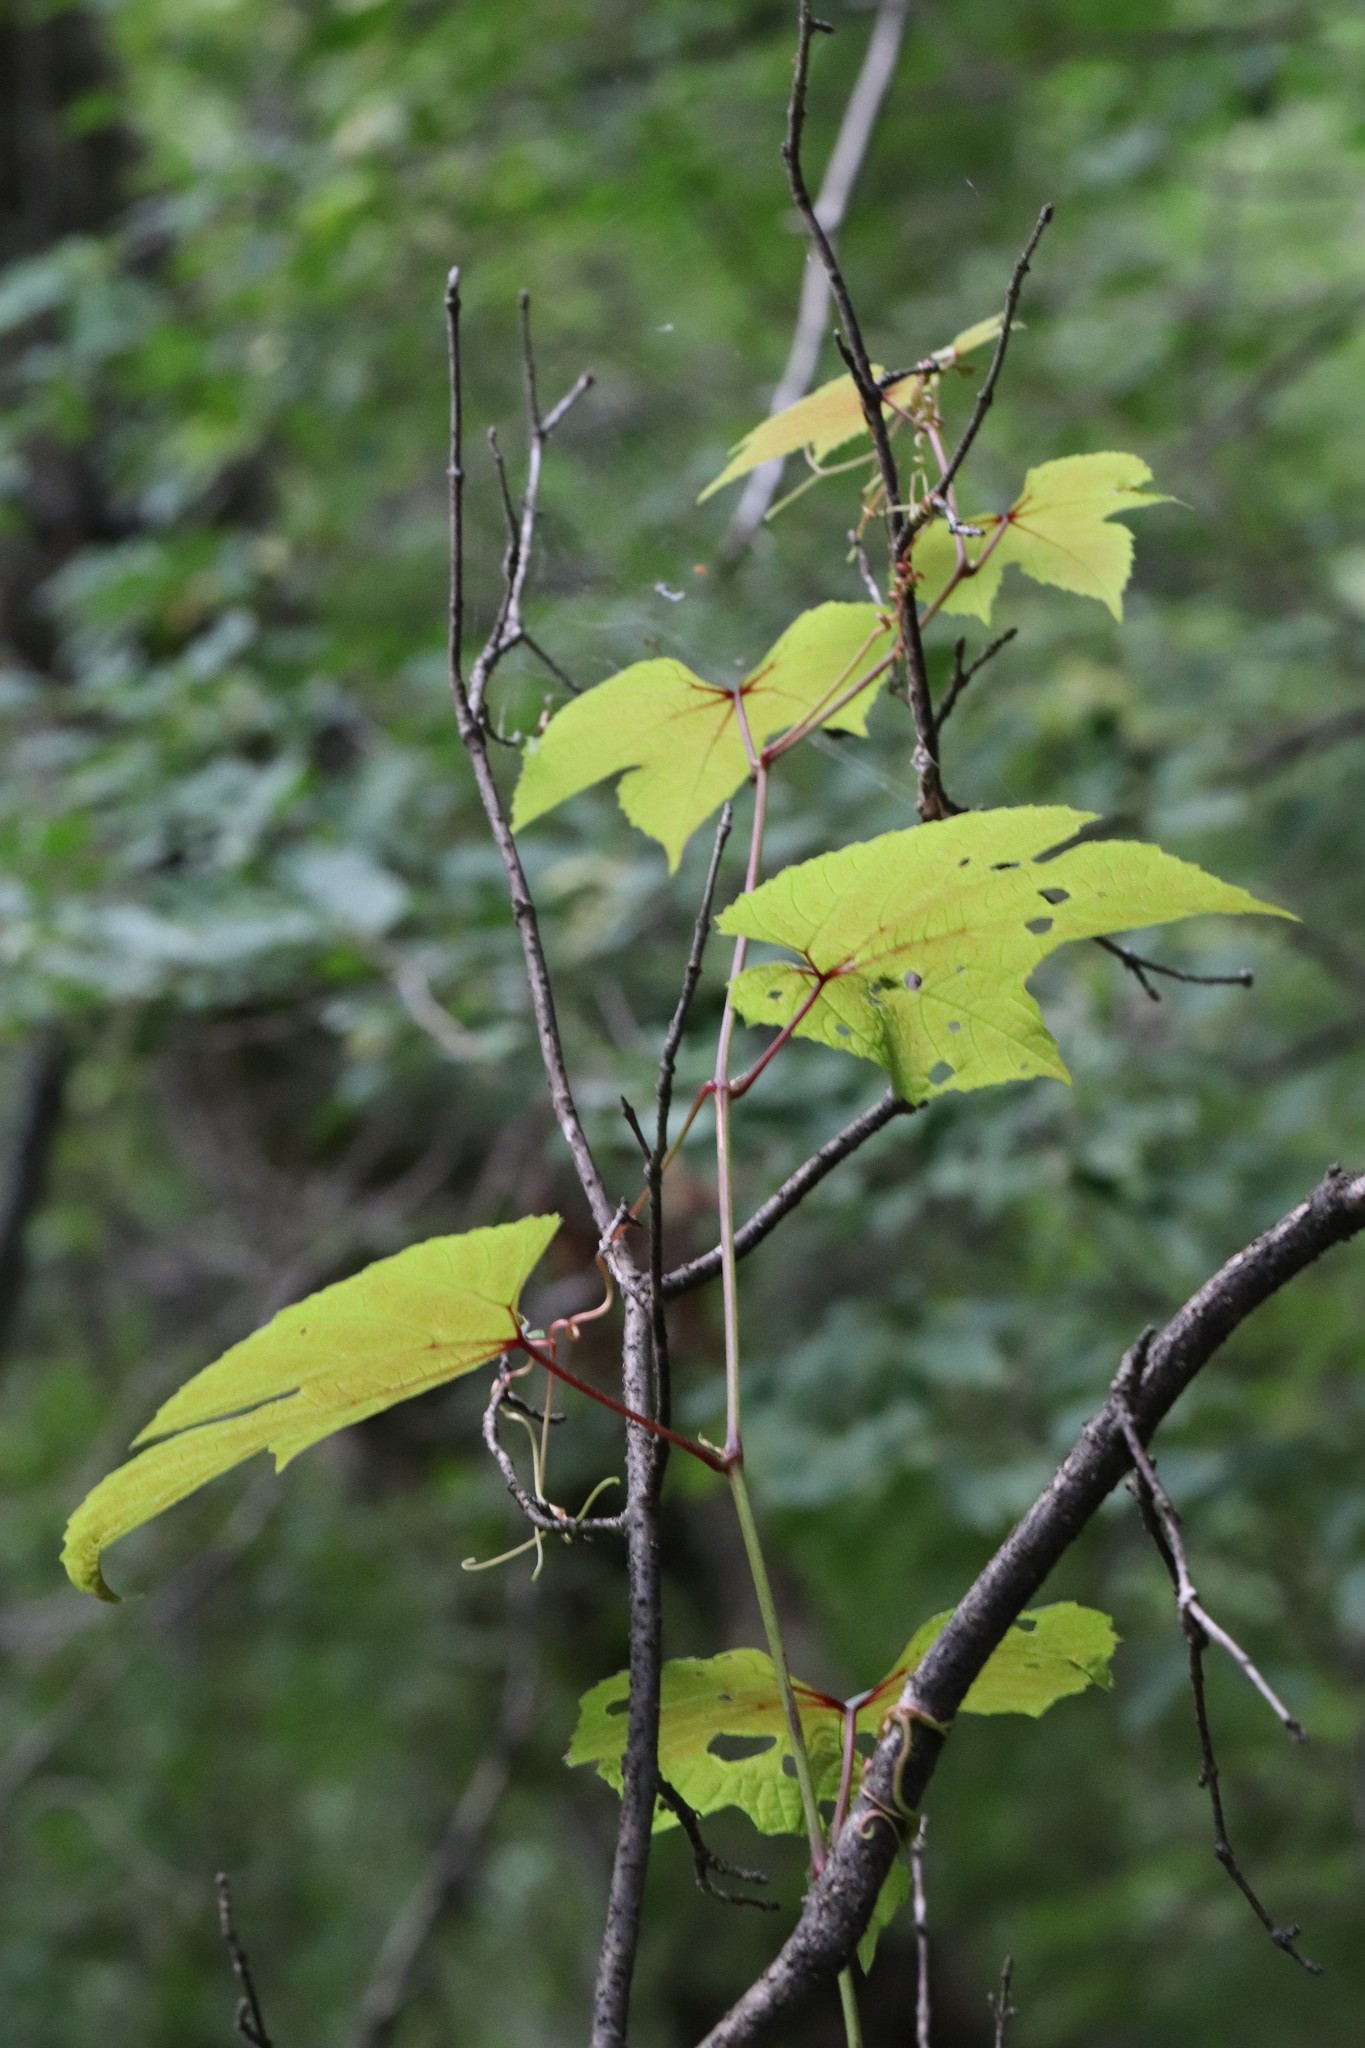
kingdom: Plantae
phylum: Tracheophyta
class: Magnoliopsida
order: Vitales
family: Vitaceae
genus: Vitis
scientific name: Vitis amurensis
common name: Amur grape
